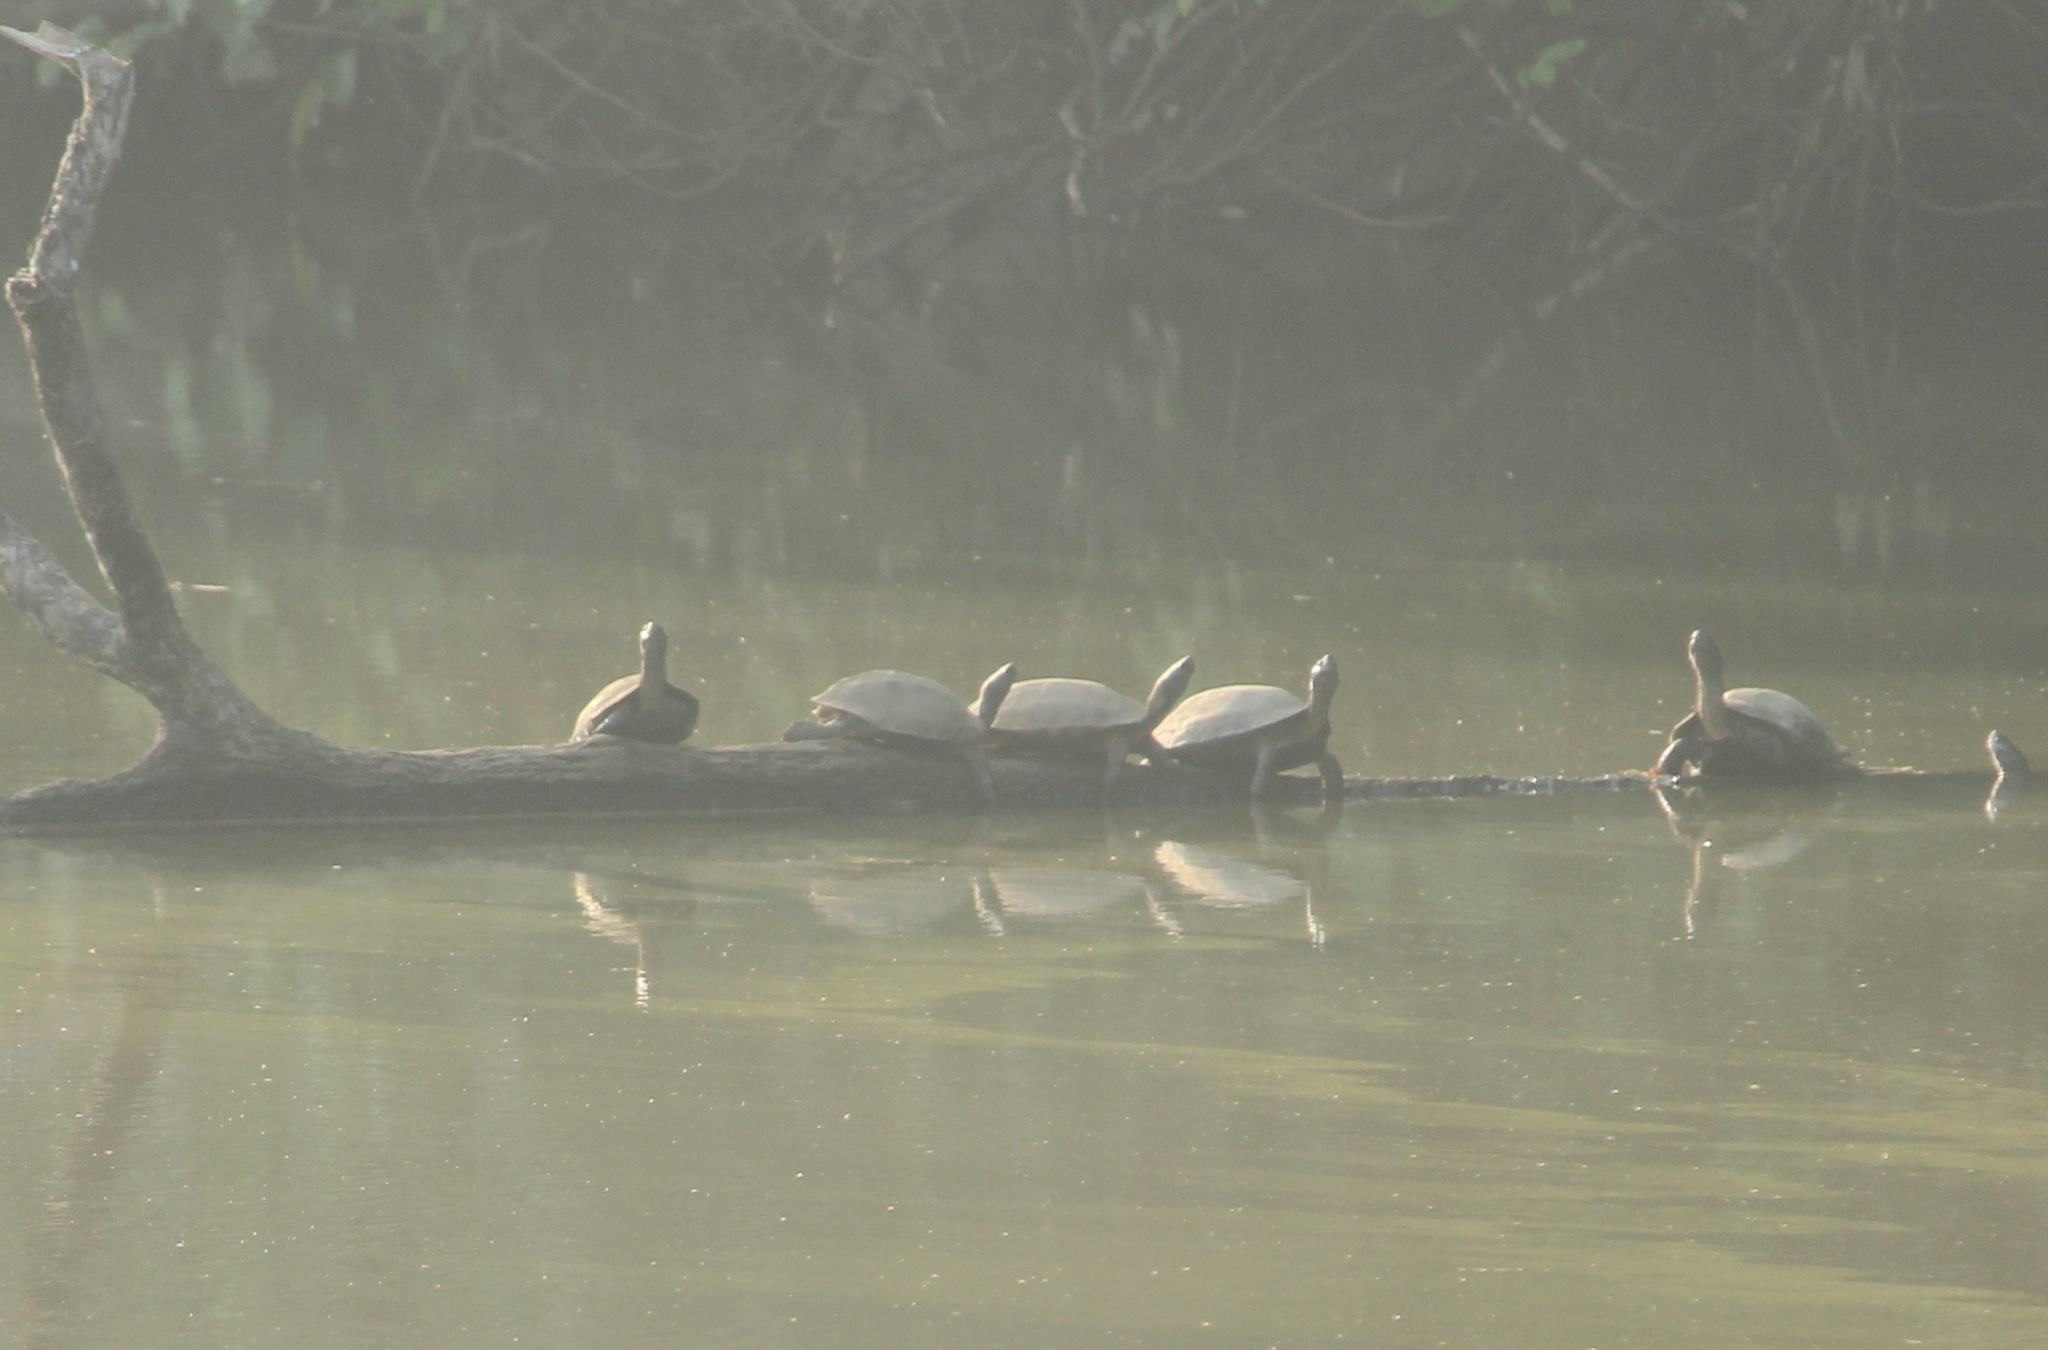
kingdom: Animalia
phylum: Chordata
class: Testudines
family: Geoemydidae
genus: Melanochelys
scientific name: Melanochelys trijuga
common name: Indian black turtle
